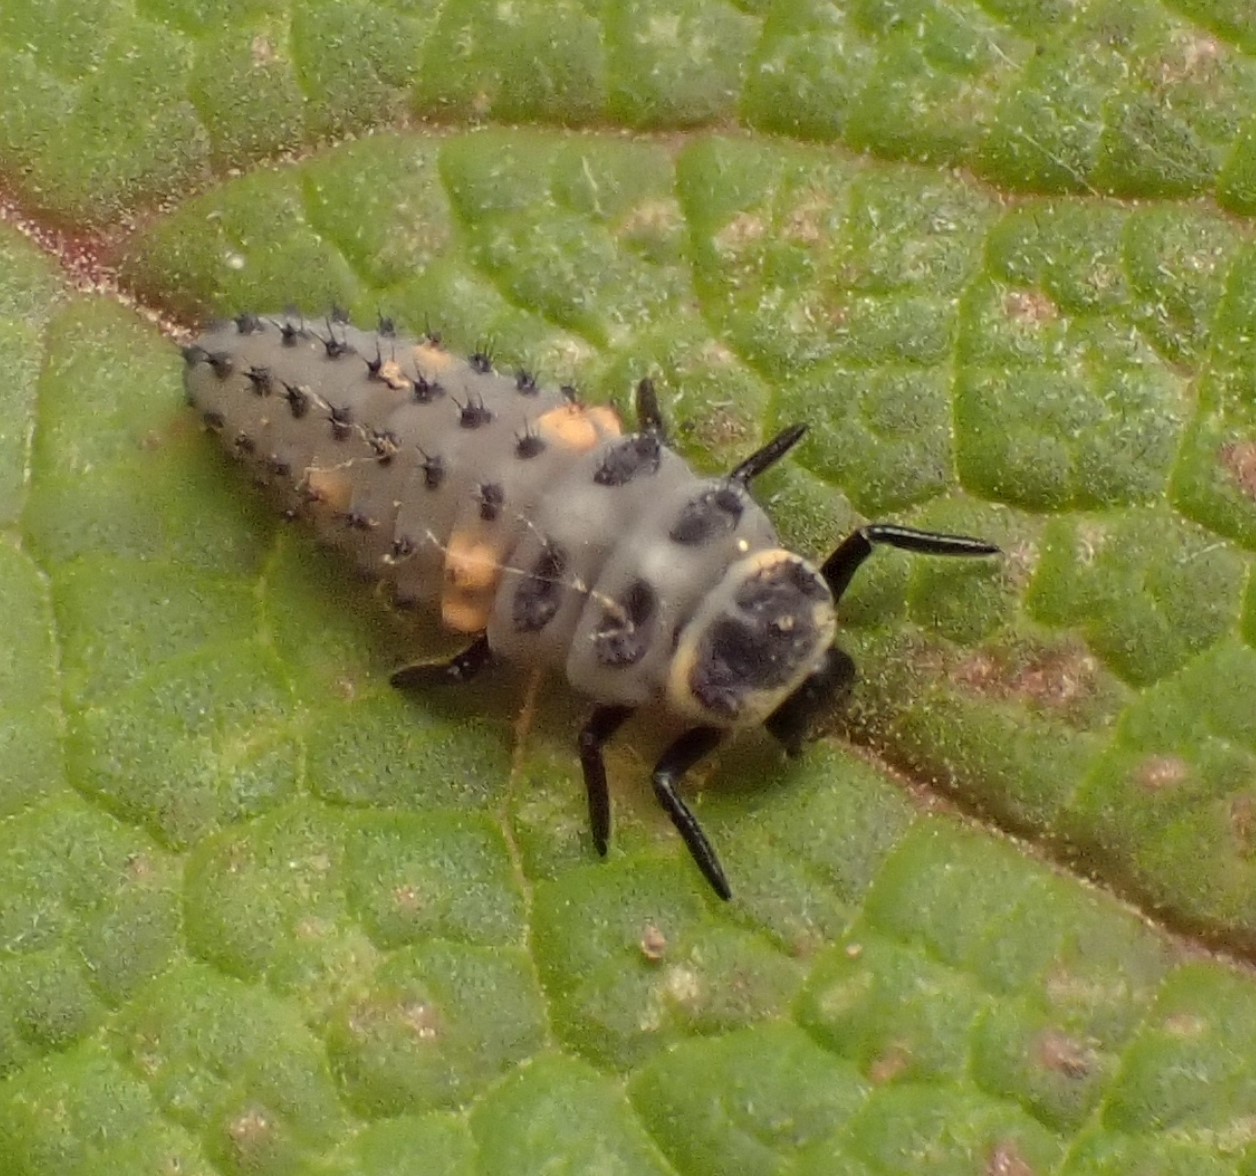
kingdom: Animalia
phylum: Arthropoda
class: Insecta
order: Coleoptera
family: Coccinellidae
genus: Coccinella
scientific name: Coccinella septempunctata
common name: Sevenspotted lady beetle
